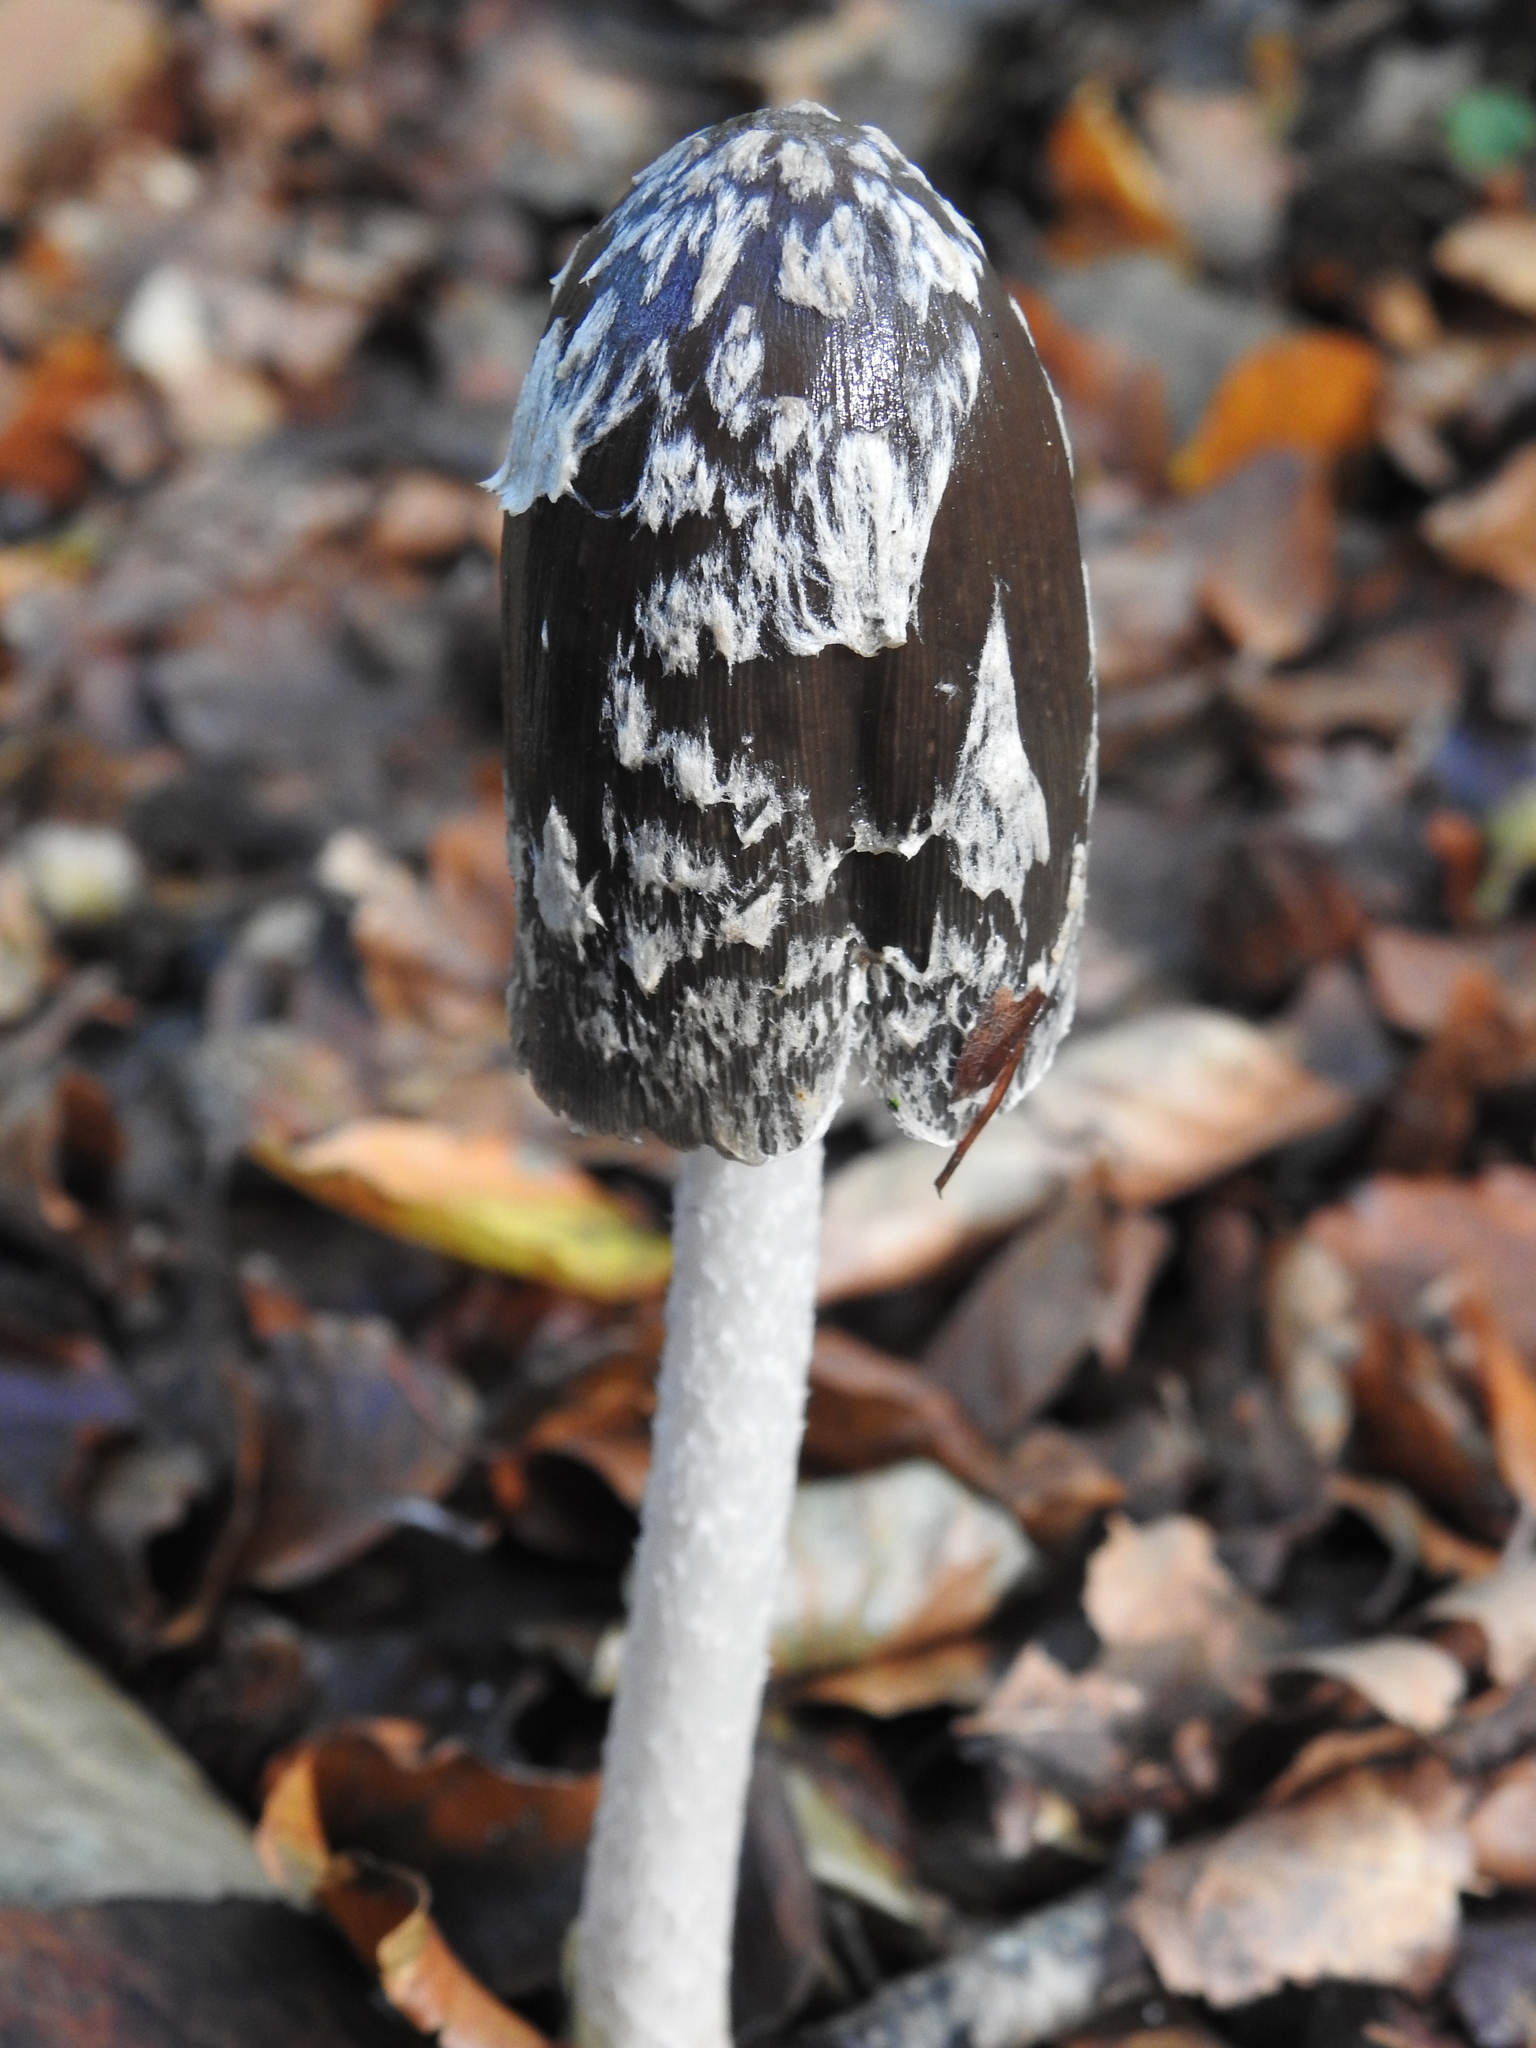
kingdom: Fungi
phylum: Basidiomycota
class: Agaricomycetes
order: Agaricales
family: Psathyrellaceae
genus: Coprinopsis
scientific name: Coprinopsis picacea
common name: Magpie inkcap
